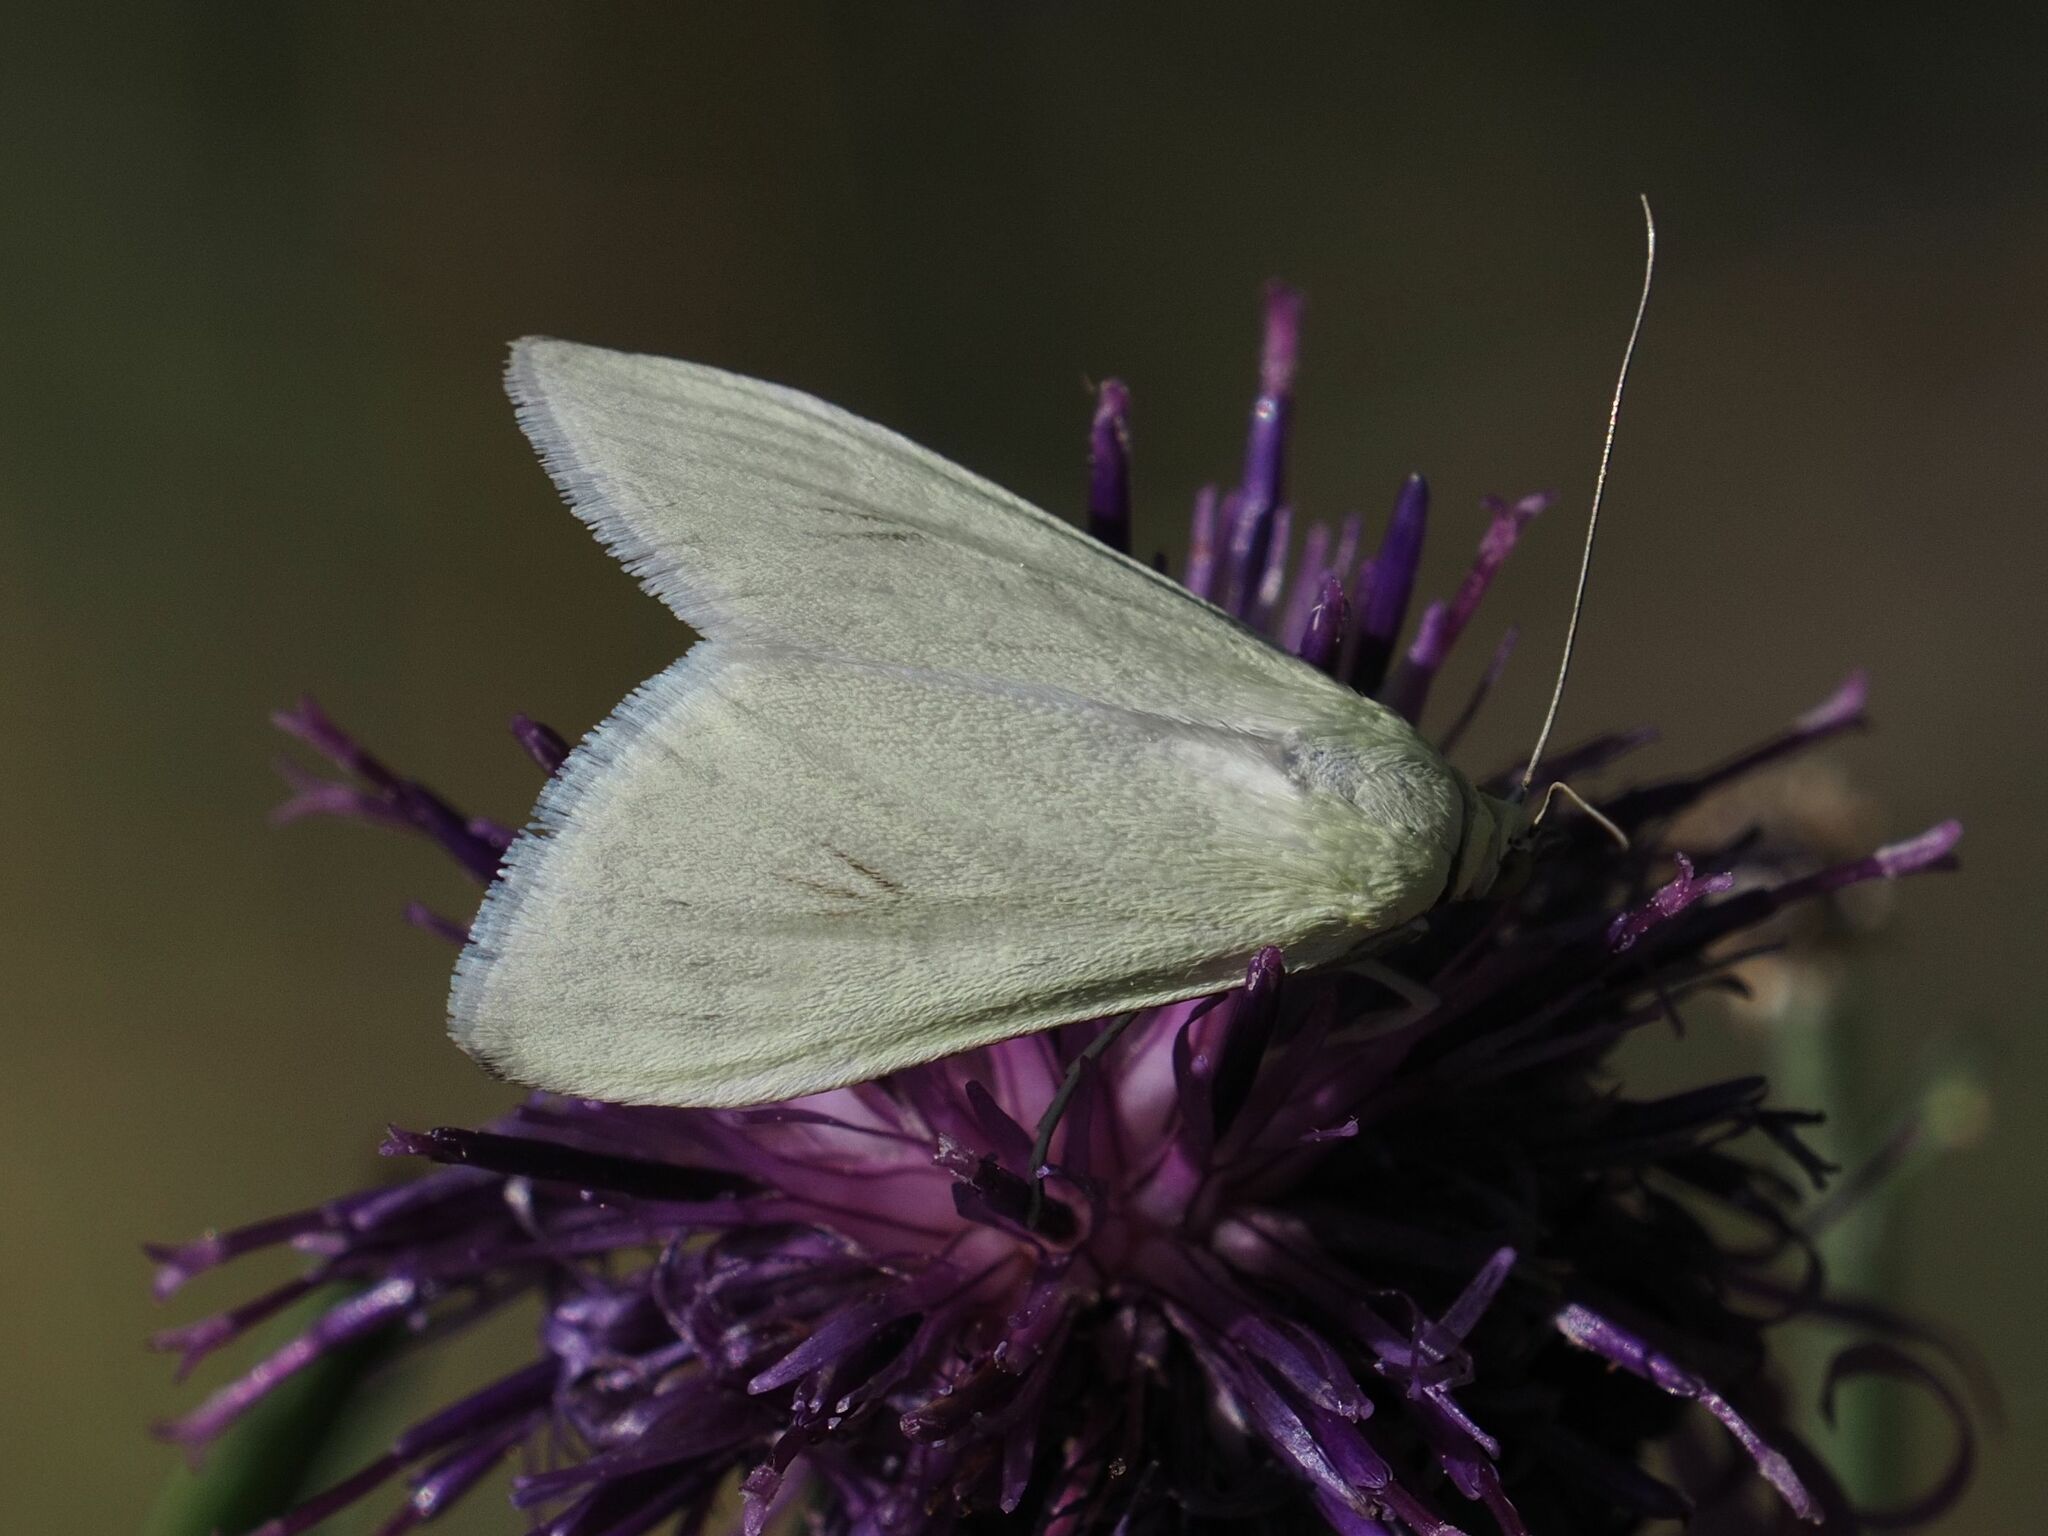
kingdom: Animalia
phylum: Arthropoda
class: Insecta
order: Lepidoptera
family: Crambidae
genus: Sitochroa
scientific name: Sitochroa palealis
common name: Greenish-yellow sitochroa moth
